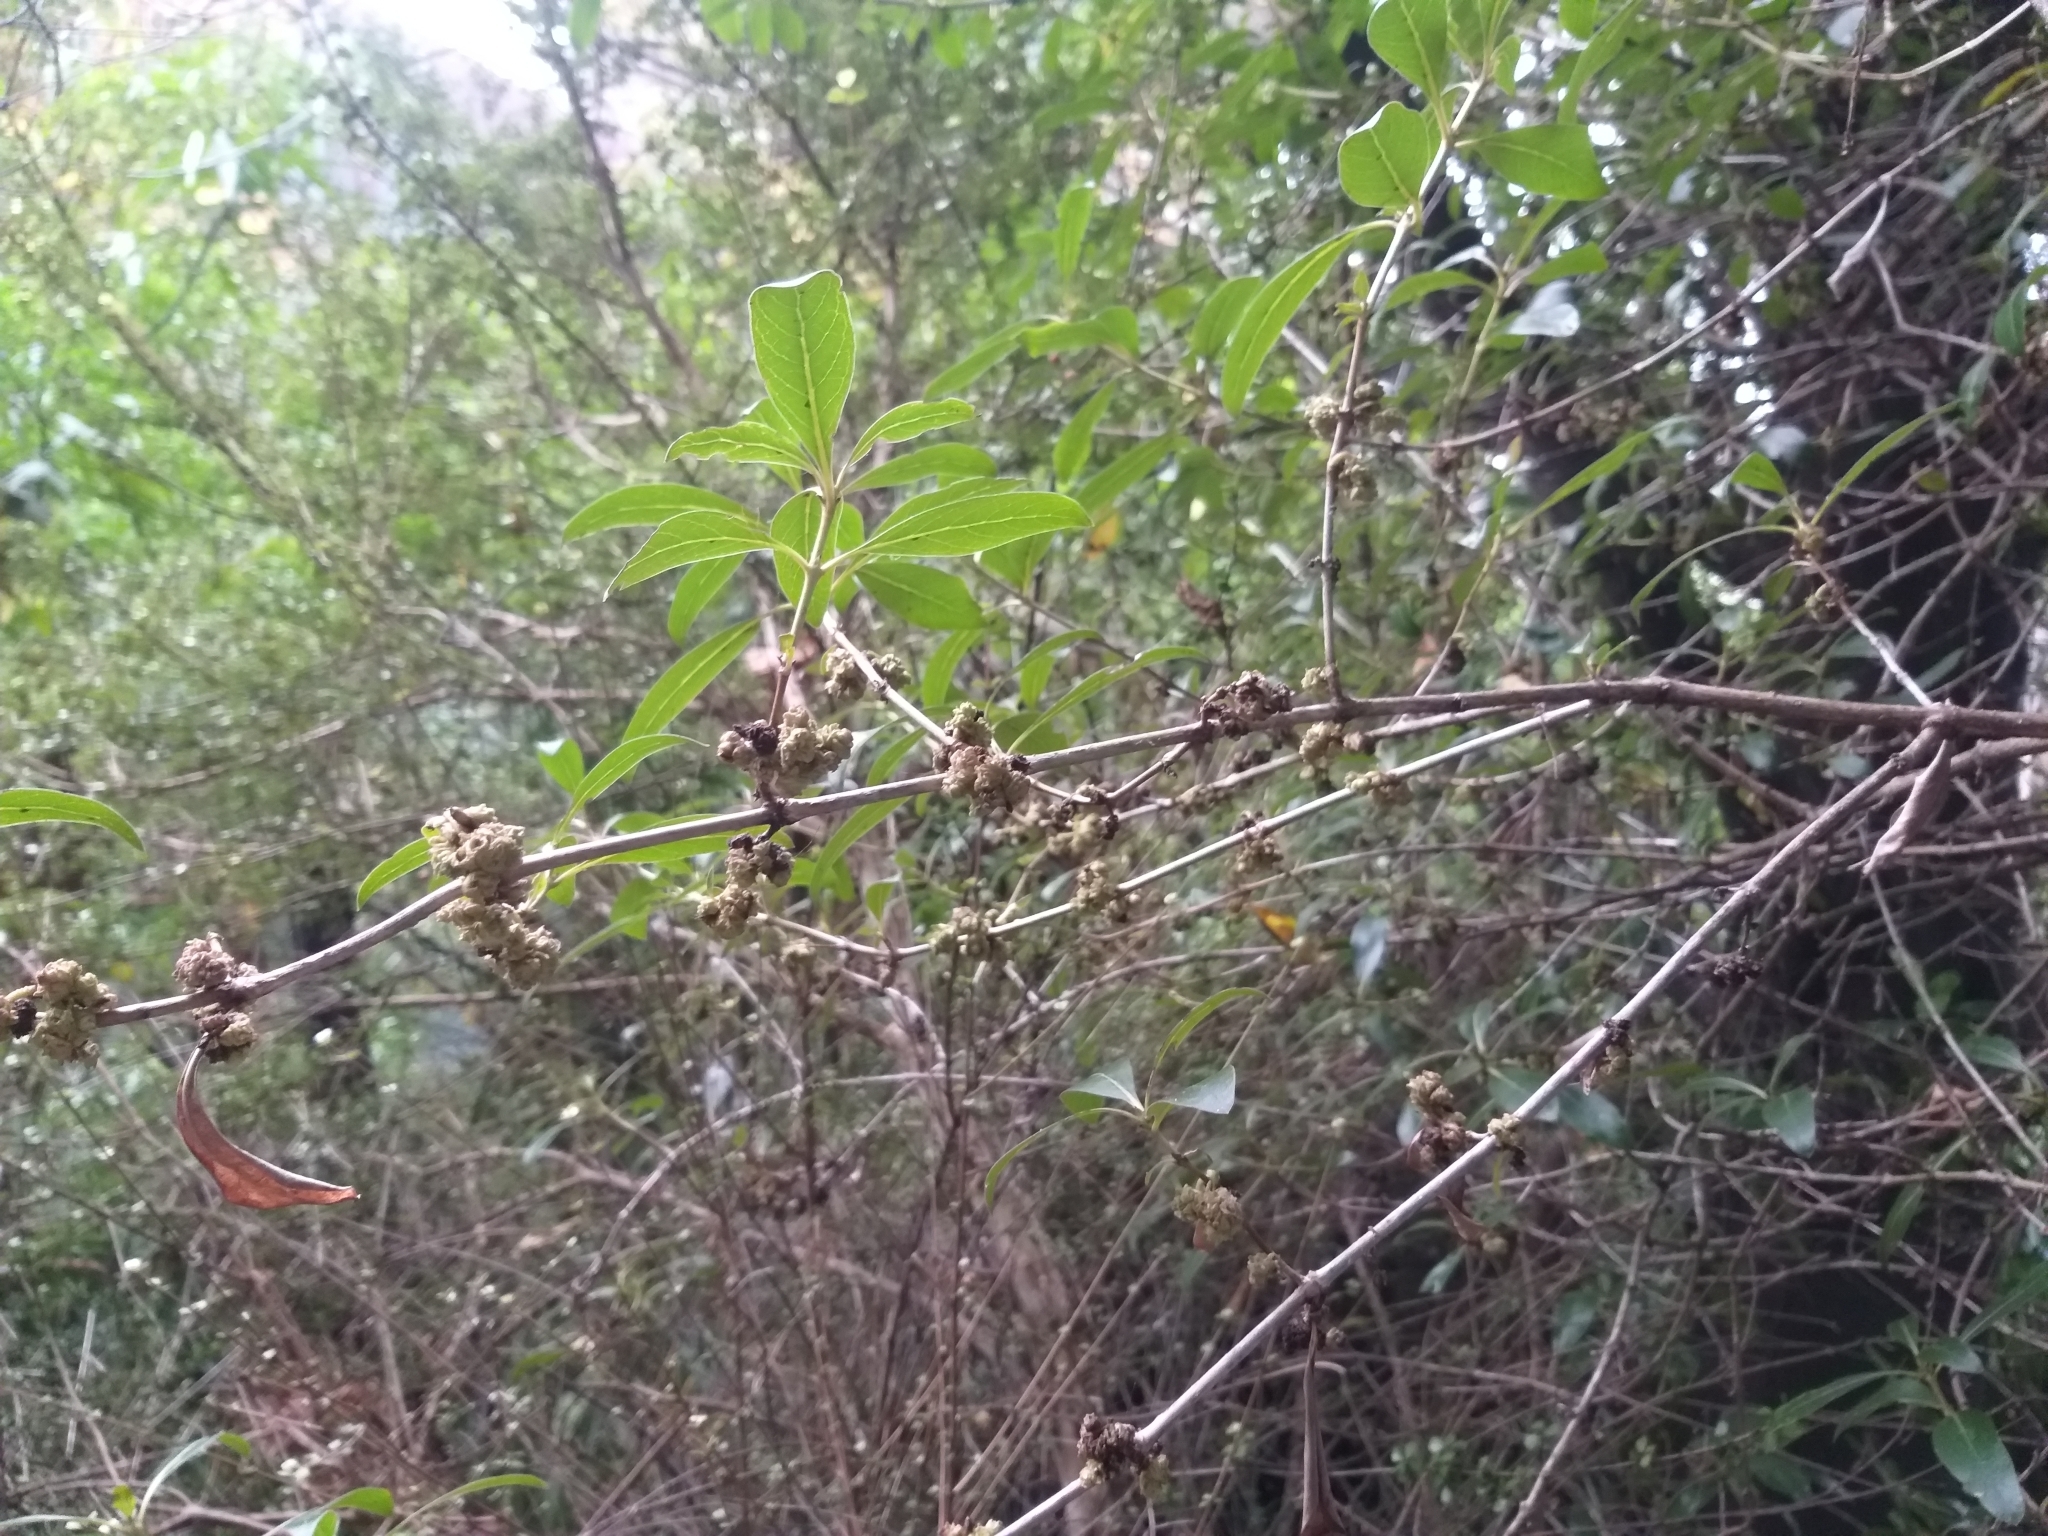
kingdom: Plantae
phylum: Tracheophyta
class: Magnoliopsida
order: Gentianales
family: Rubiaceae
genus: Coprosma
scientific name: Coprosma robusta
